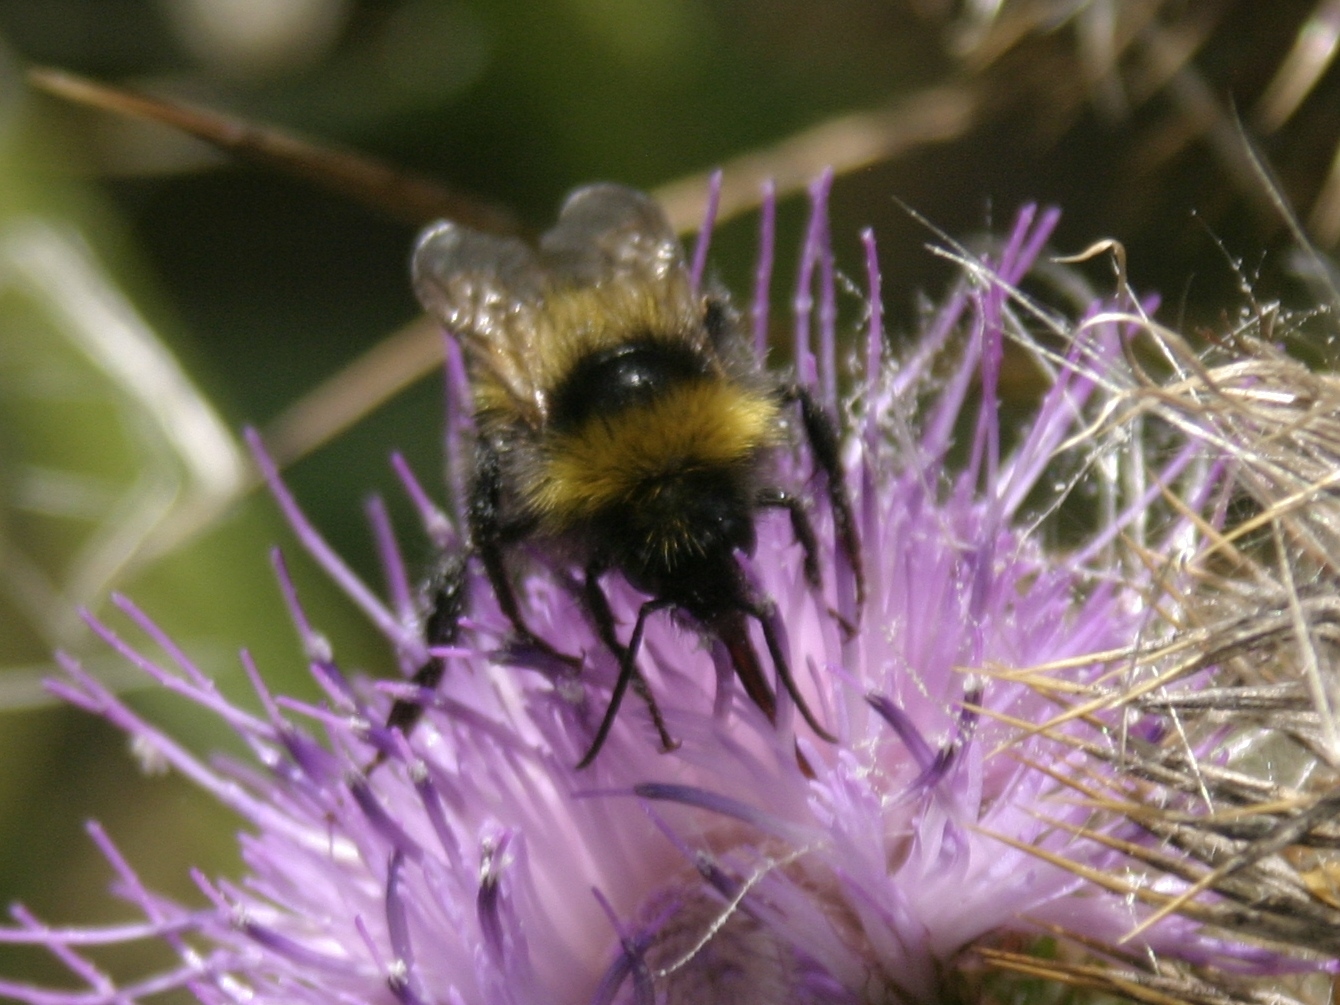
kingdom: Animalia
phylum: Arthropoda
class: Insecta
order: Hymenoptera
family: Apidae
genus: Bombus
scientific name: Bombus ruderatus
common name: Large garden bumblebee
